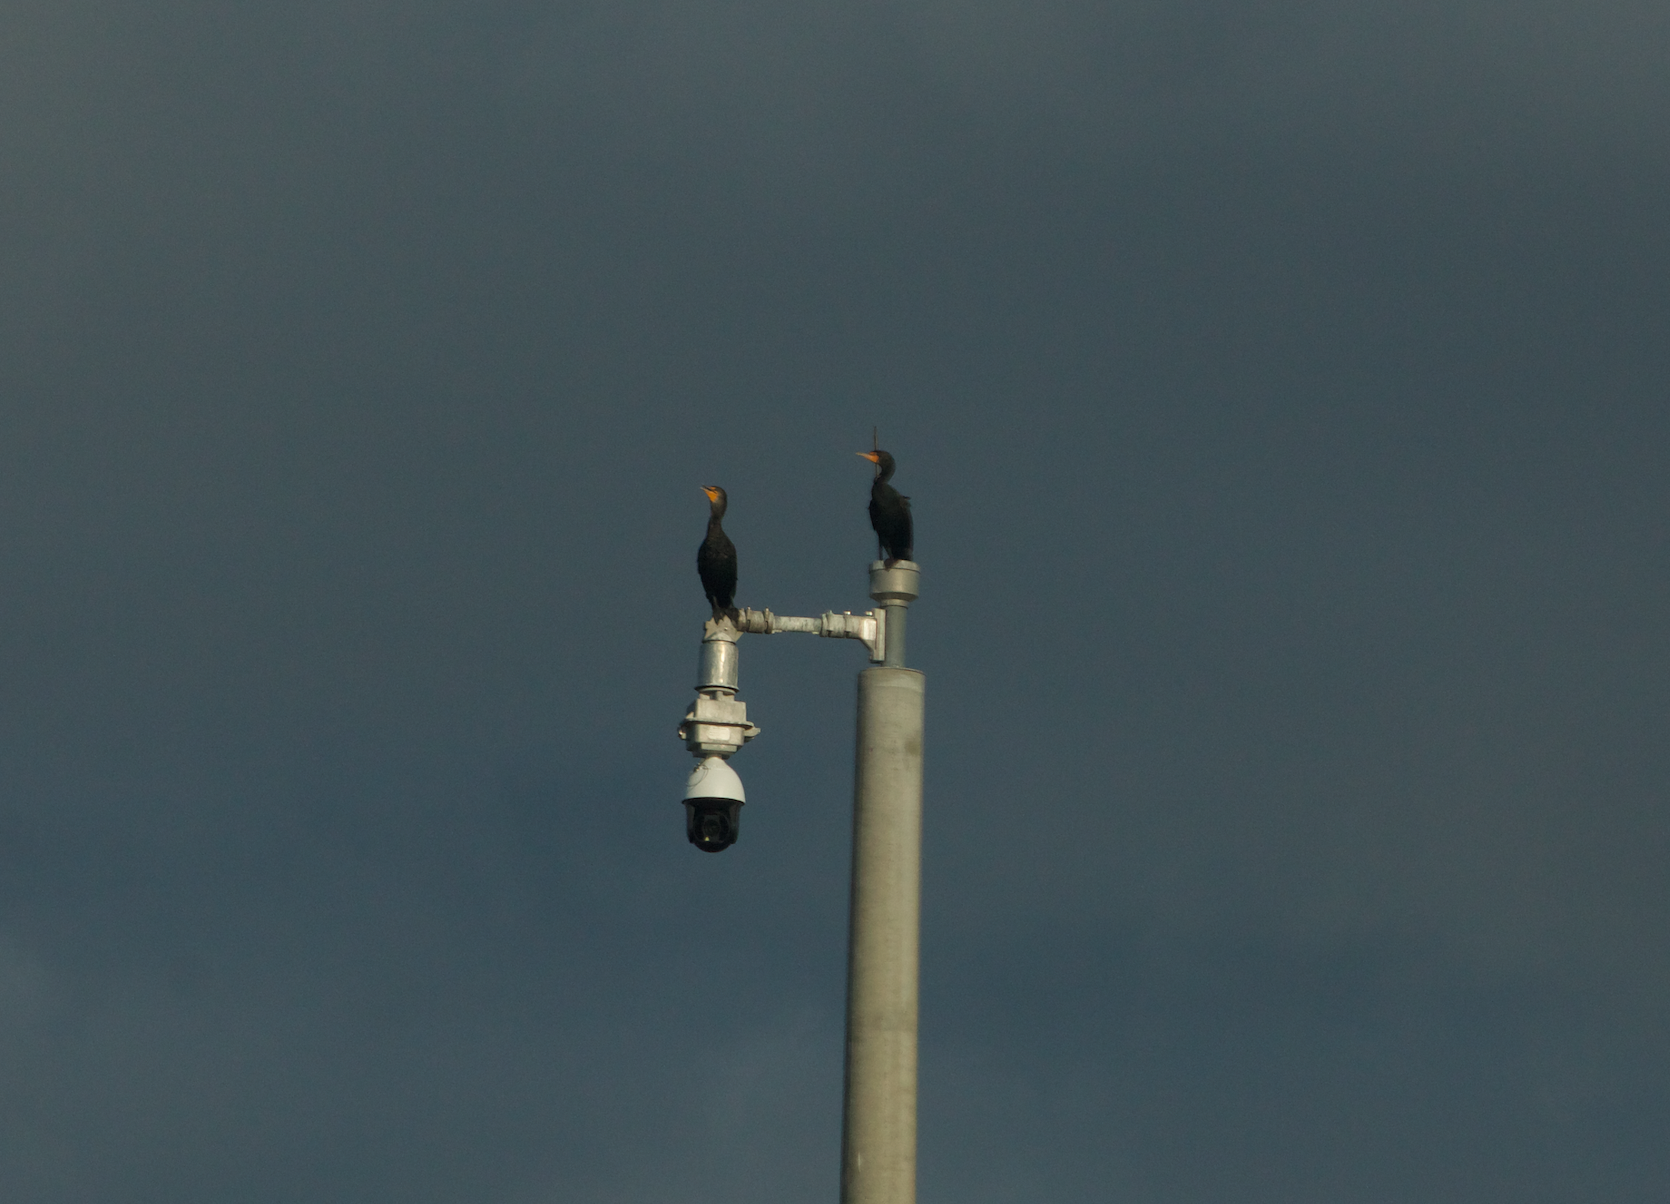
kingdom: Animalia
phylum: Chordata
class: Aves
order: Suliformes
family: Phalacrocoracidae
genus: Phalacrocorax
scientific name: Phalacrocorax auritus
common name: Double-crested cormorant
